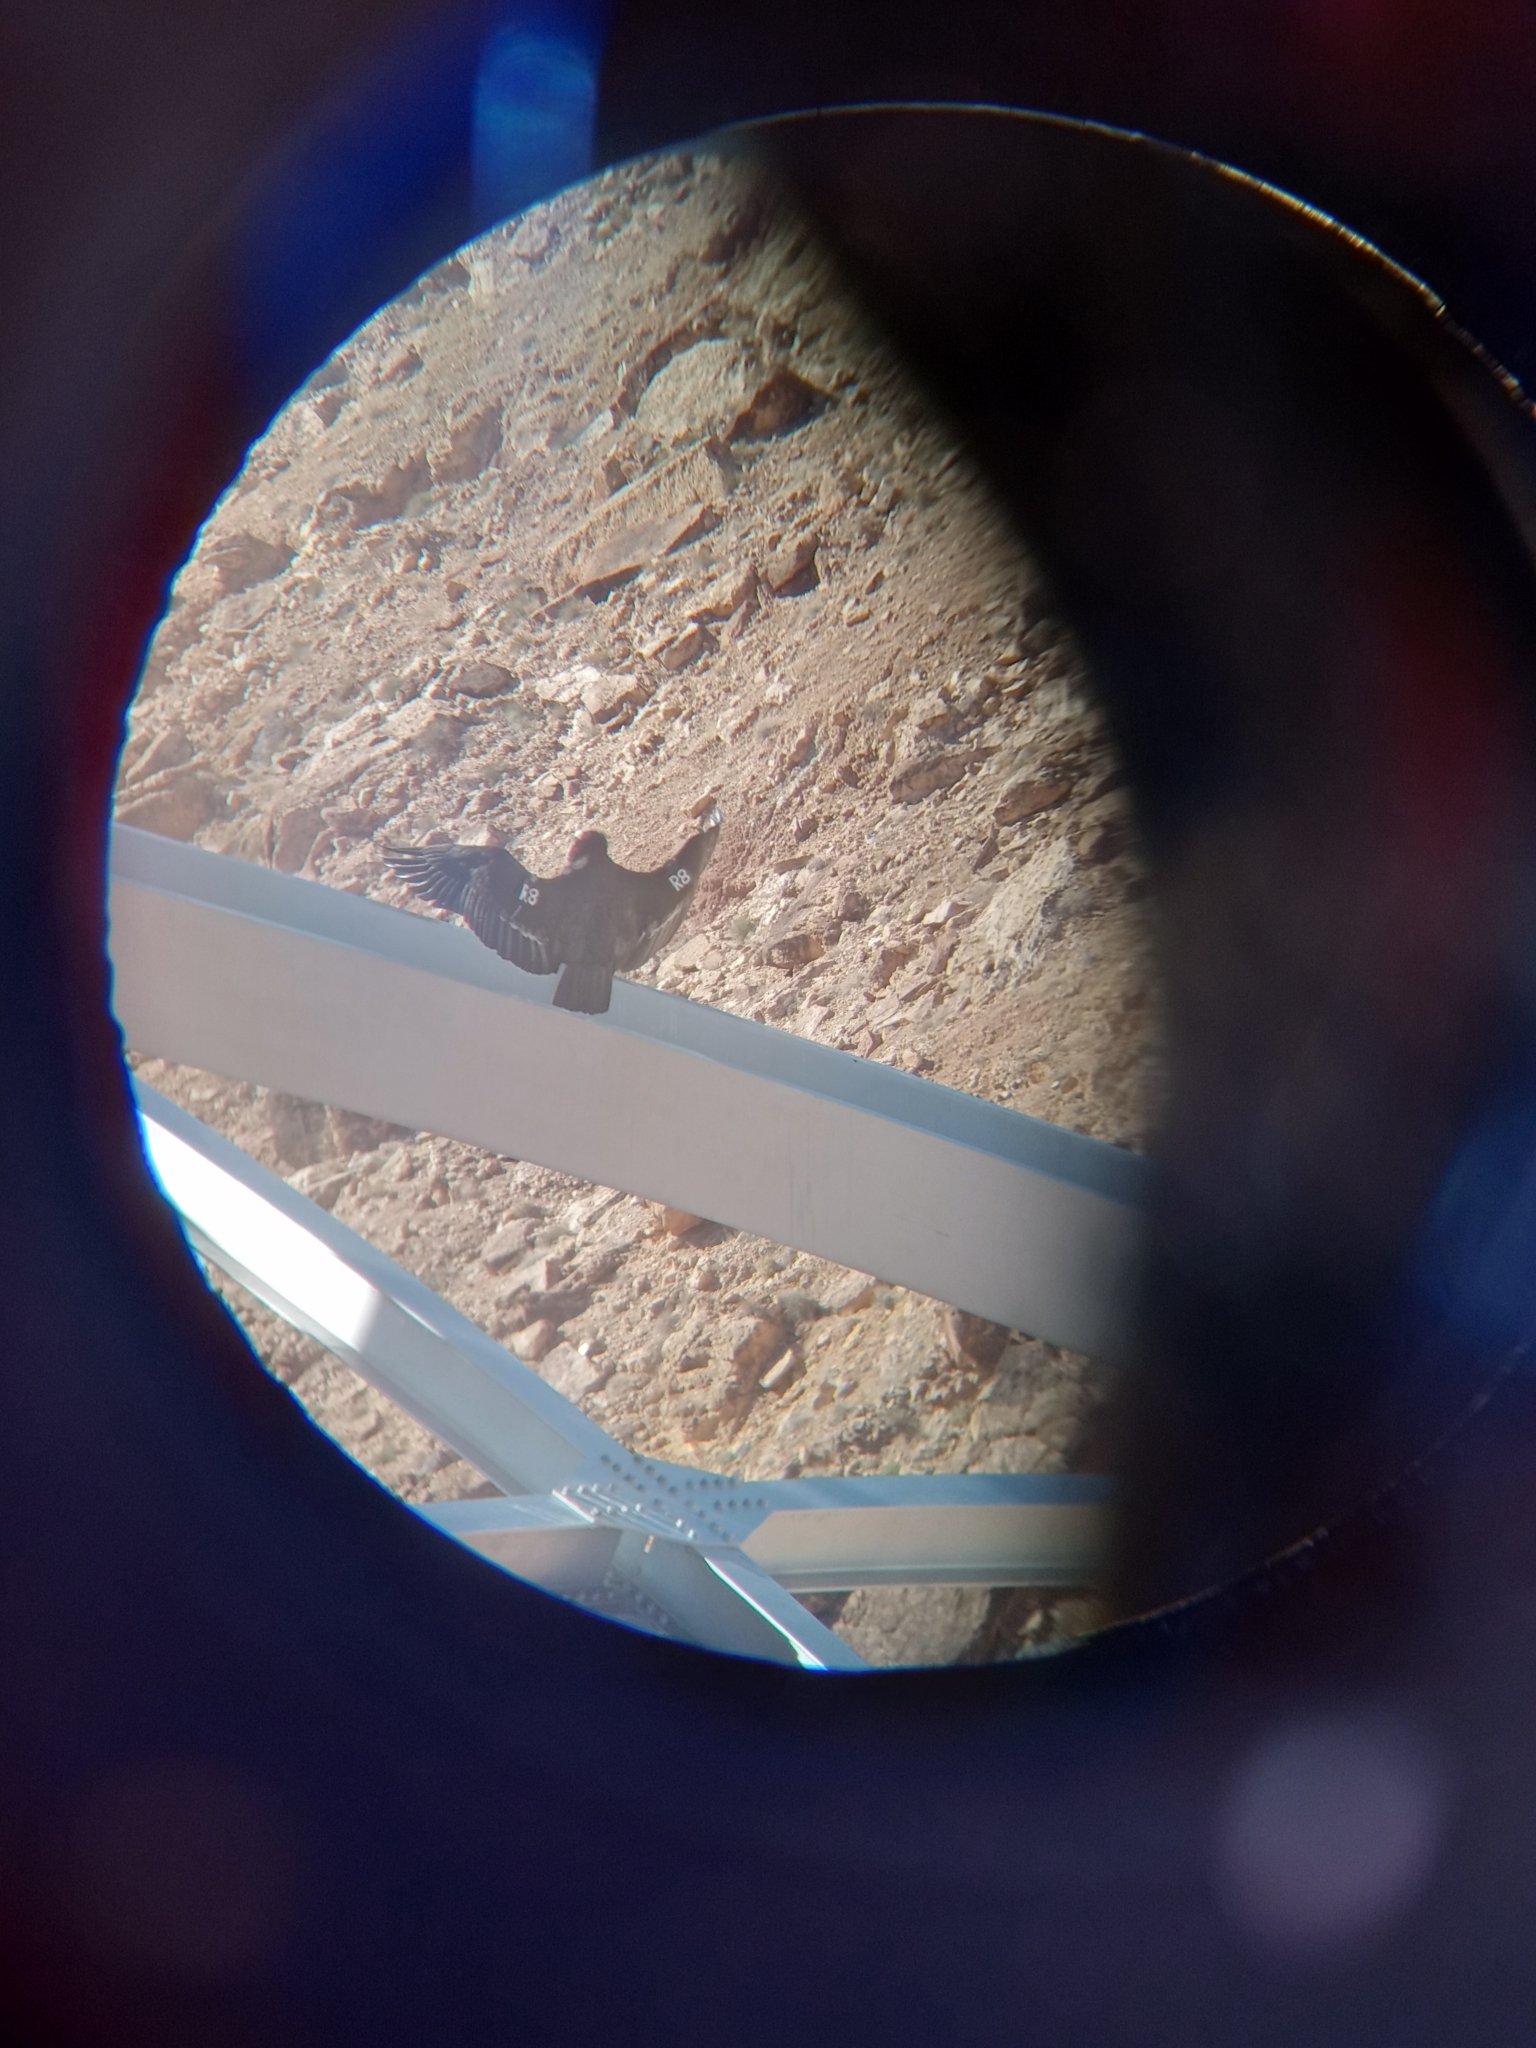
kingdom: Animalia
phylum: Chordata
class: Aves
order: Accipitriformes
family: Cathartidae
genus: Gymnogyps
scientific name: Gymnogyps californianus
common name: California condor
